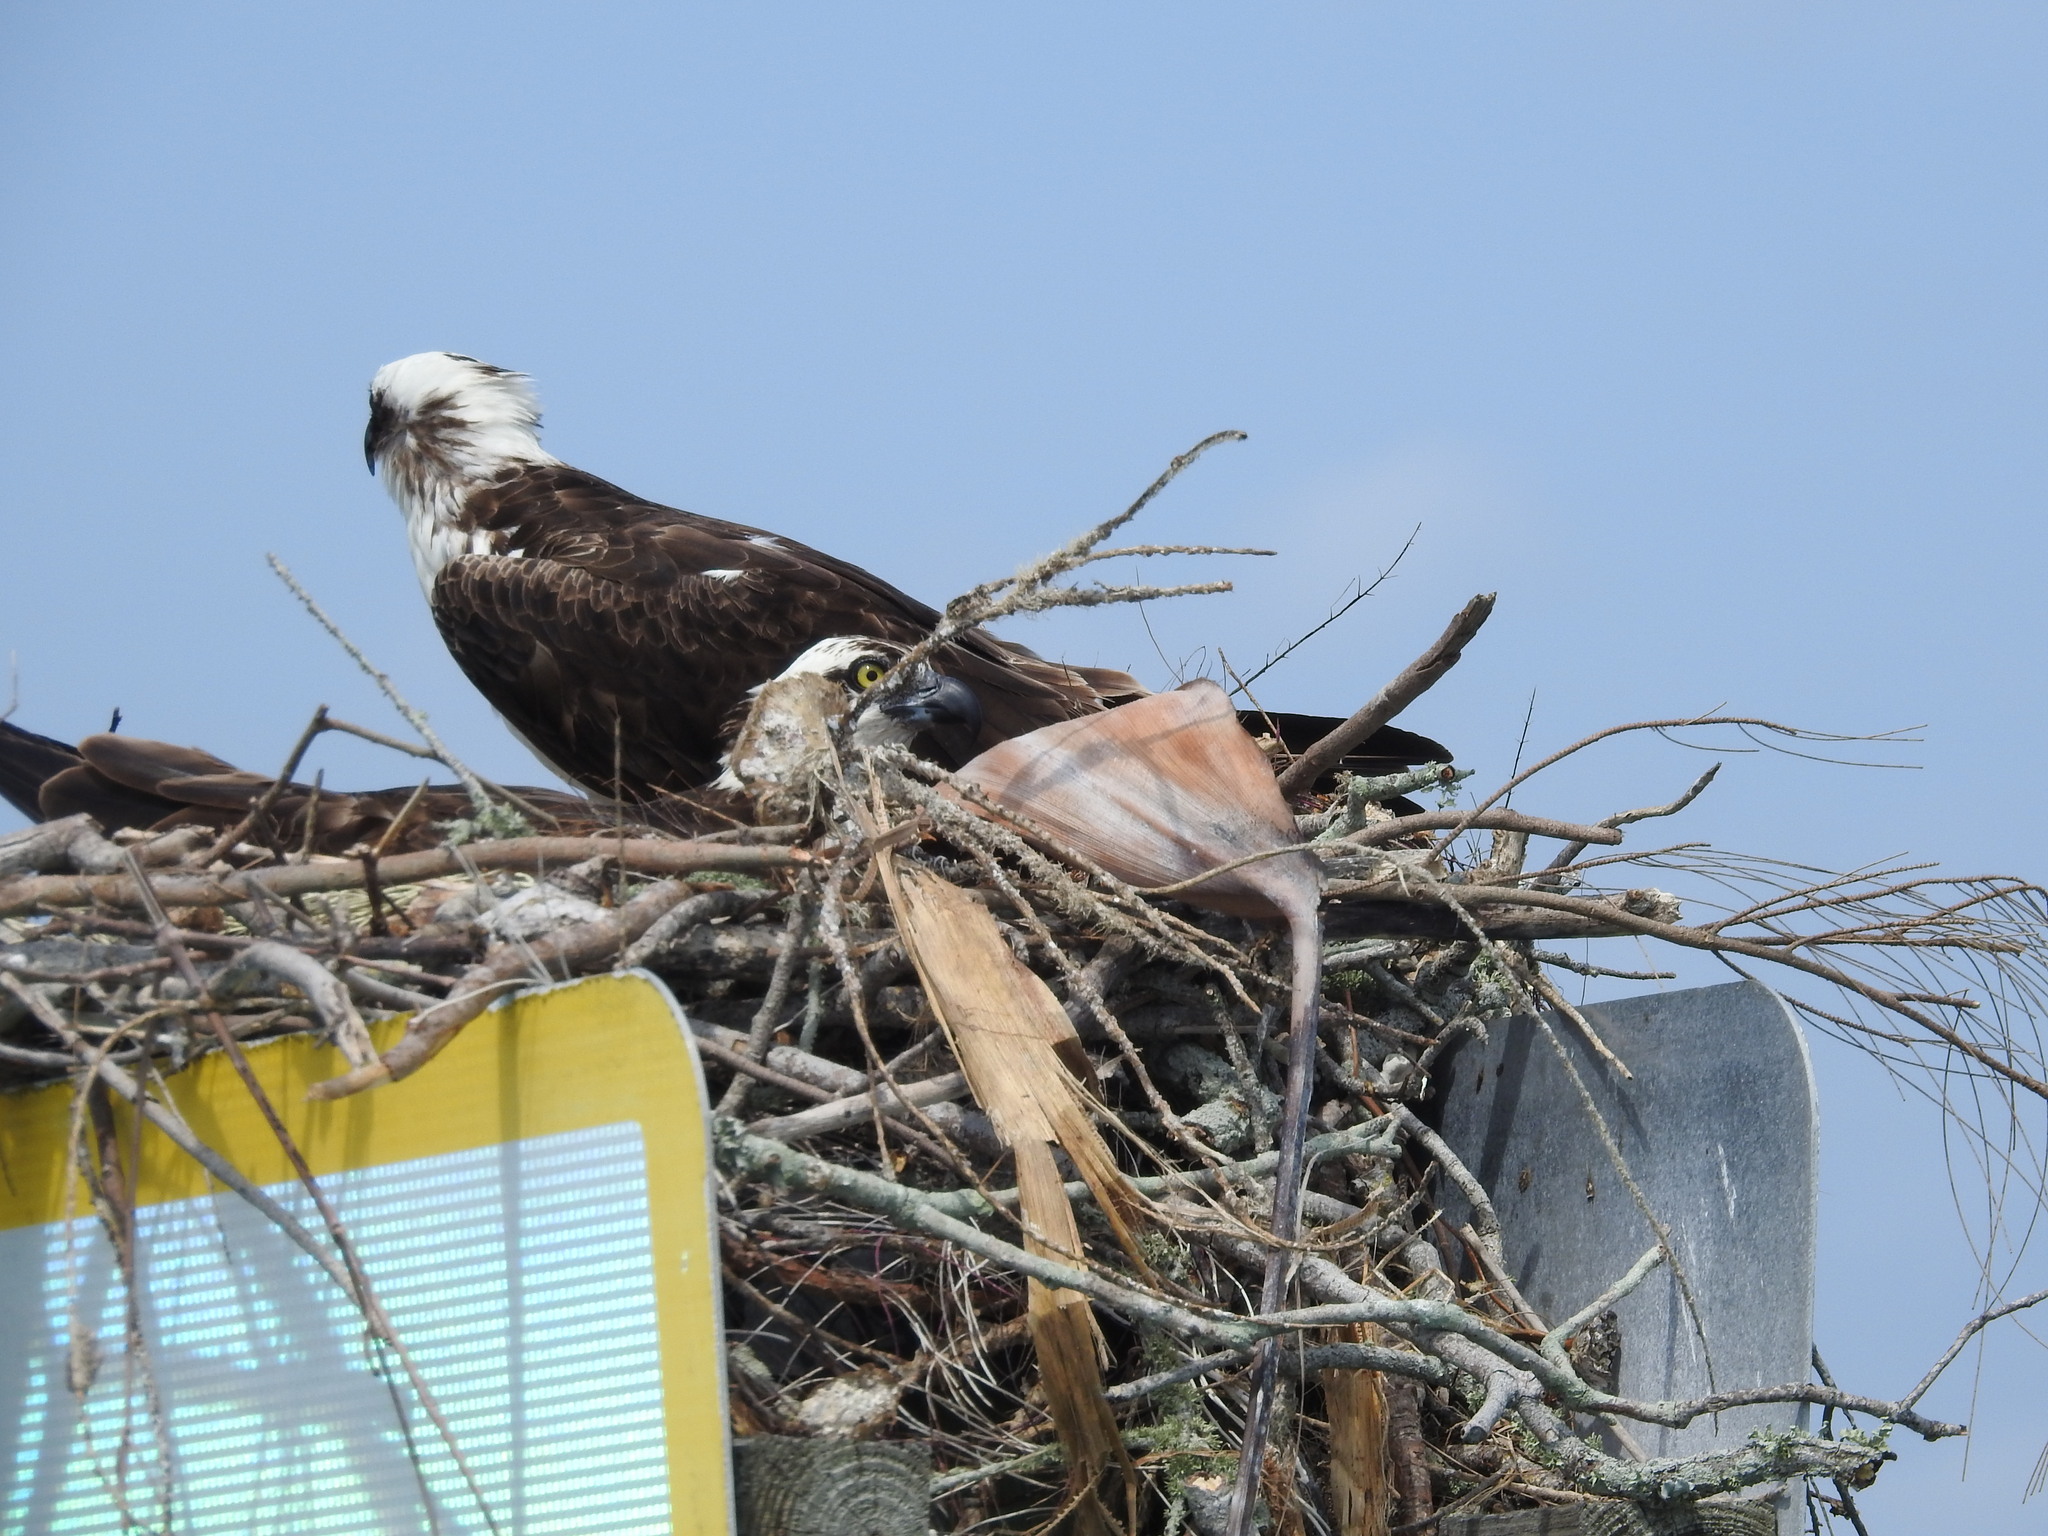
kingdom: Animalia
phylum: Chordata
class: Aves
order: Accipitriformes
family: Pandionidae
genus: Pandion
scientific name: Pandion haliaetus
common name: Osprey
